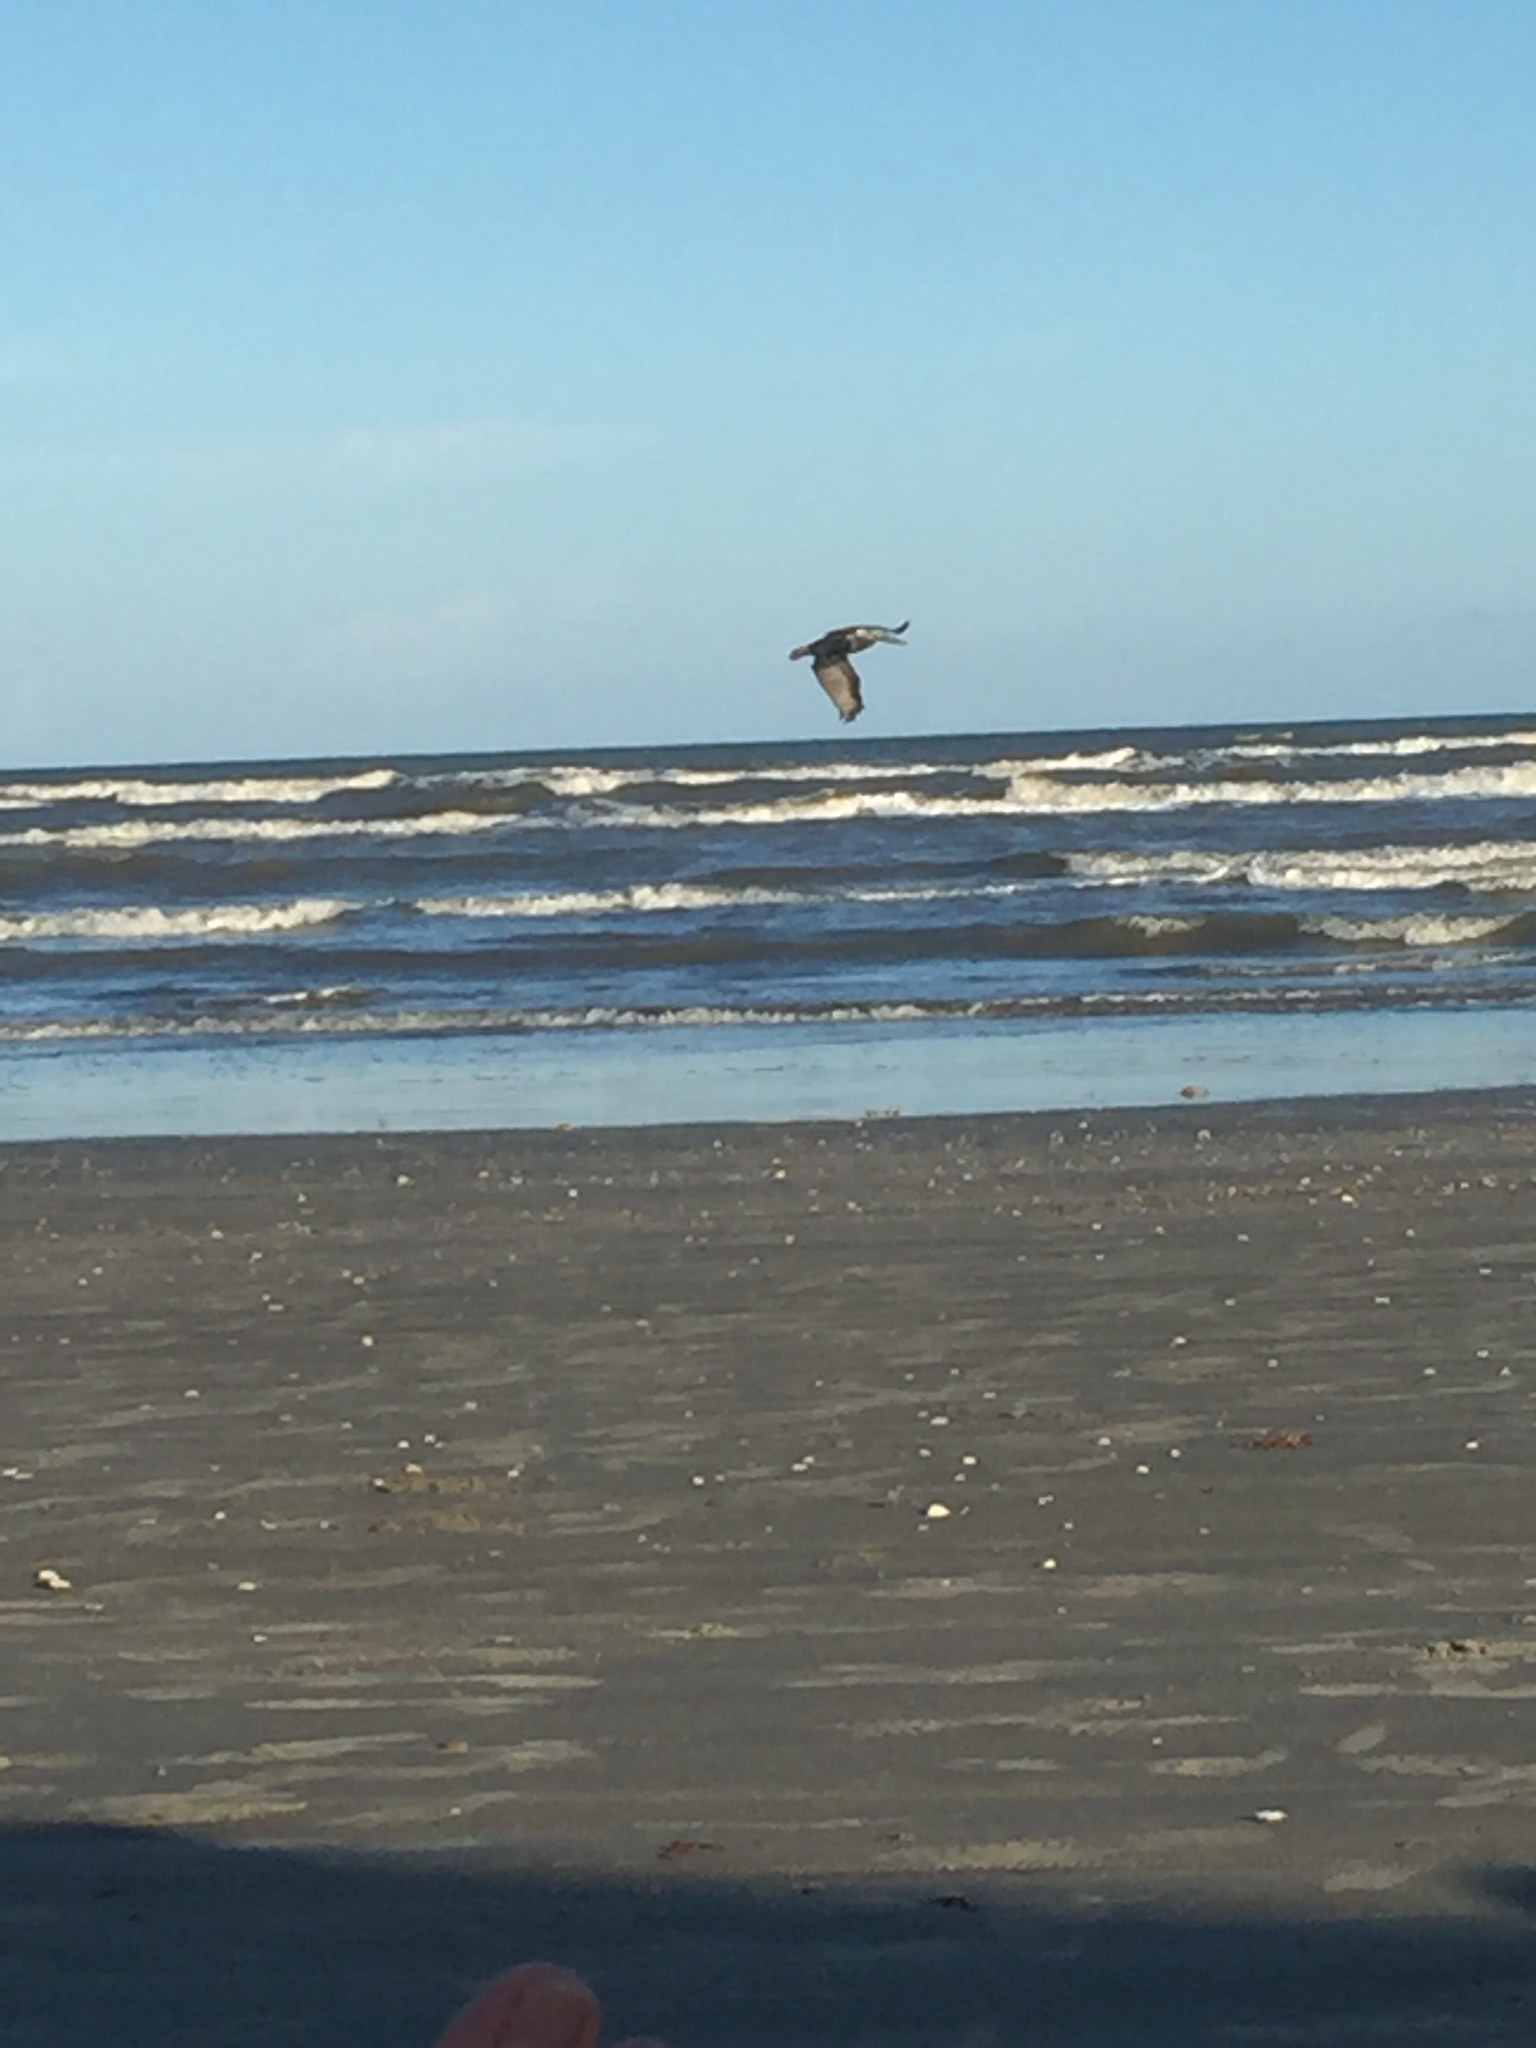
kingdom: Animalia
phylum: Chordata
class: Aves
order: Pelecaniformes
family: Pelecanidae
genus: Pelecanus
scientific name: Pelecanus occidentalis
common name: Brown pelican
